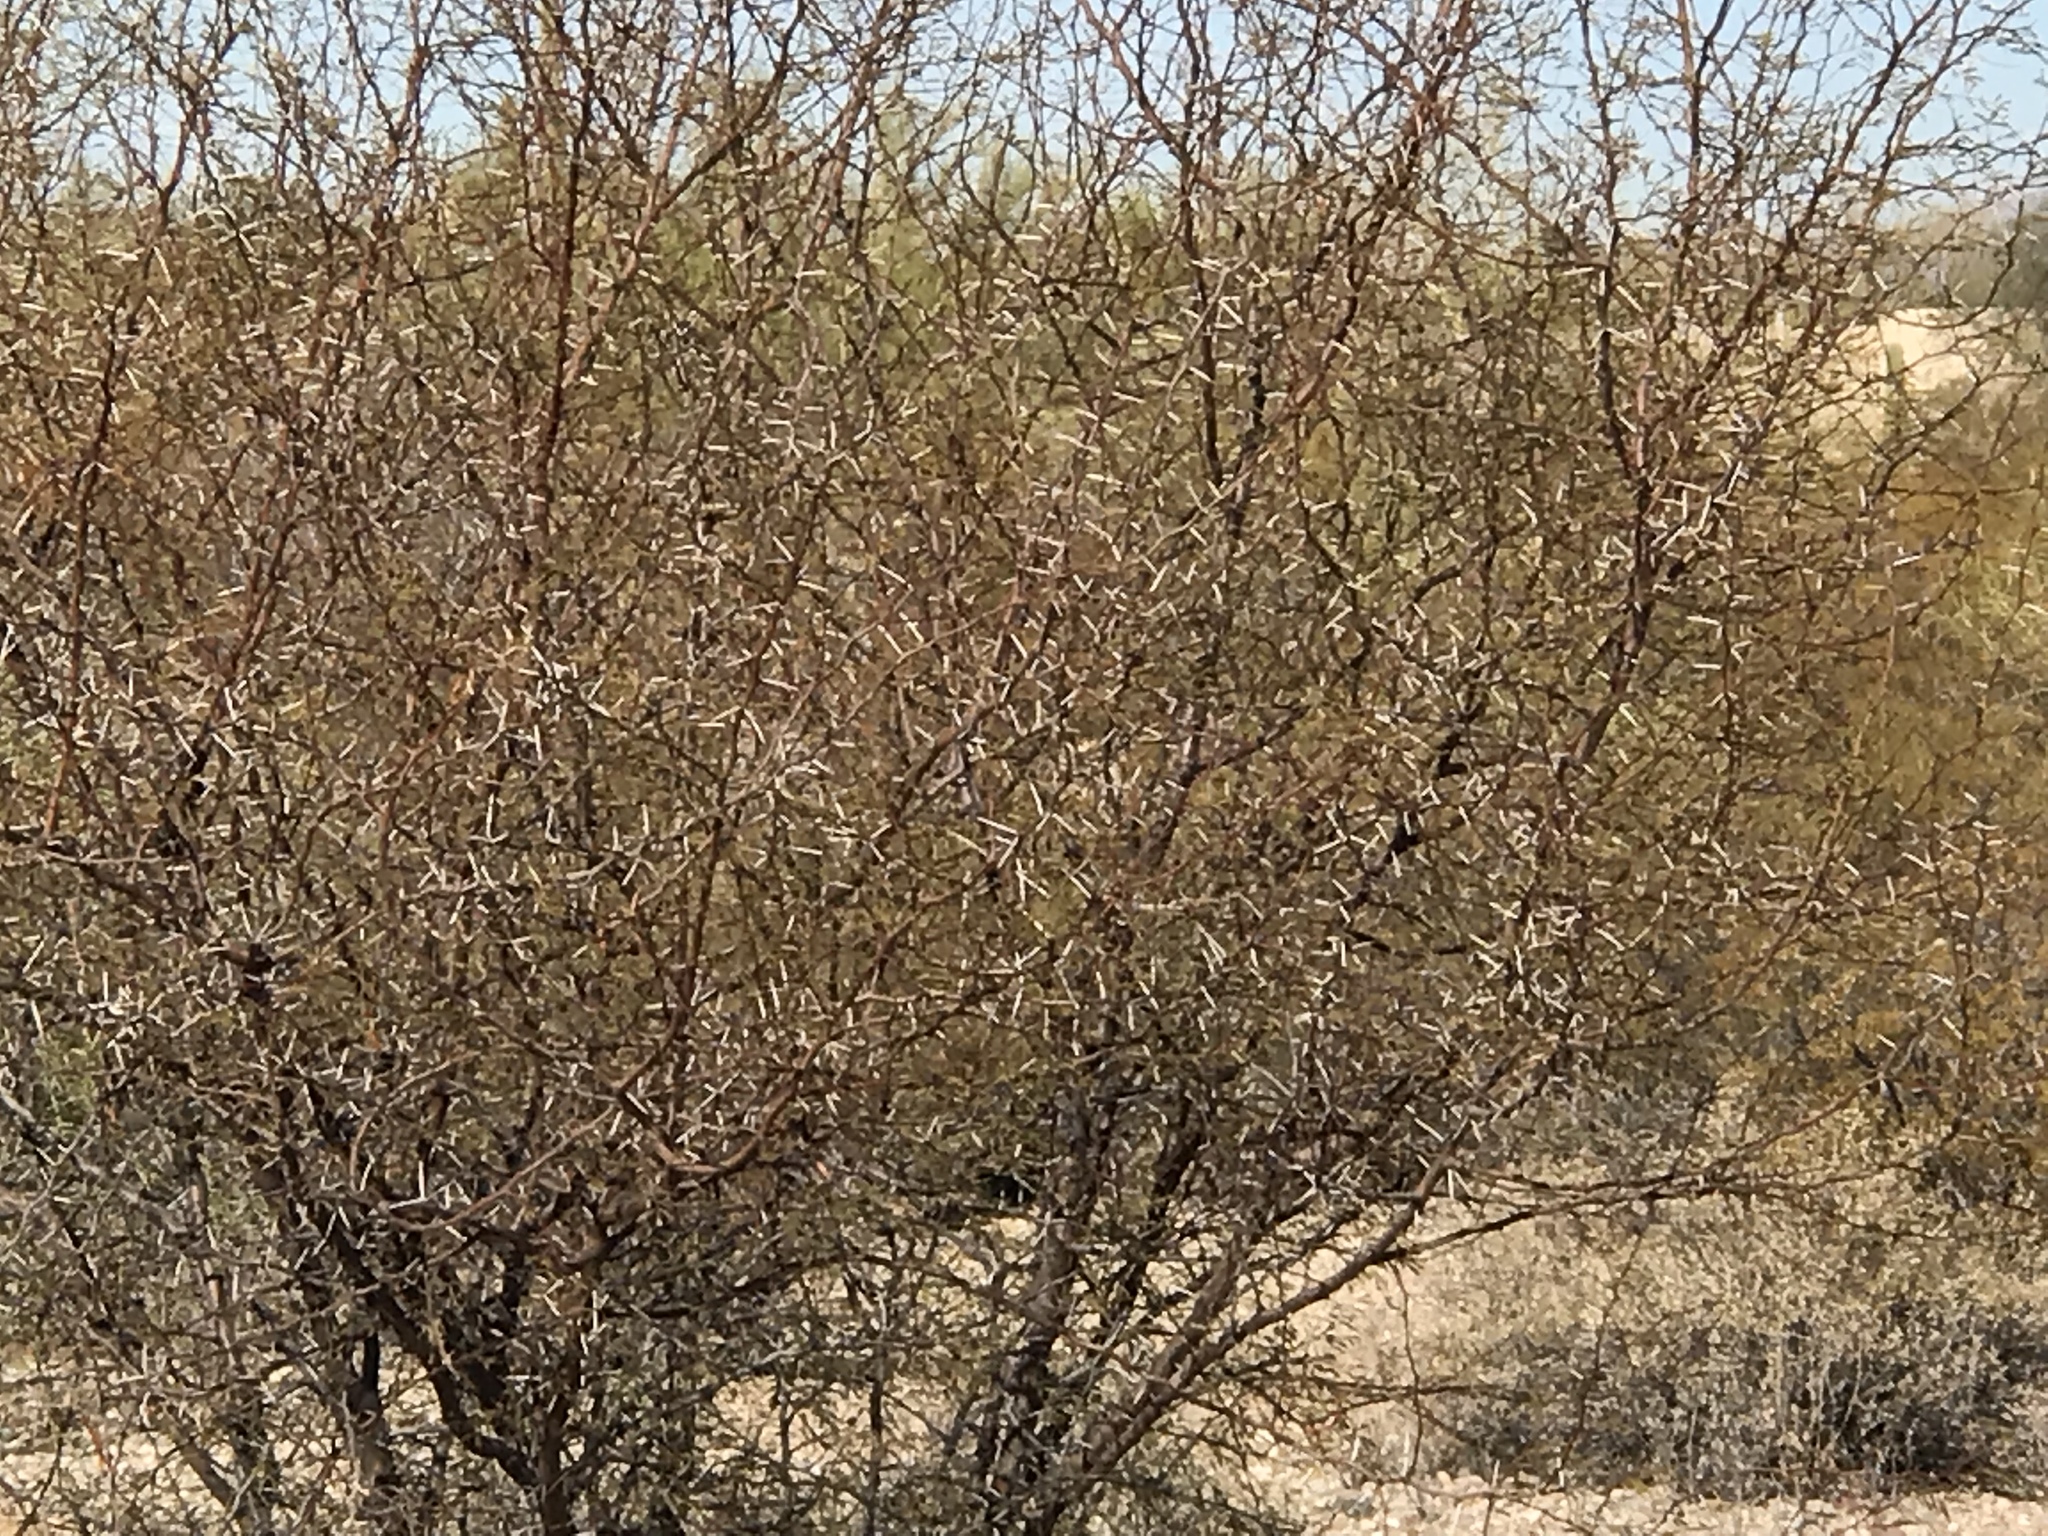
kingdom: Plantae
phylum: Tracheophyta
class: Magnoliopsida
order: Fabales
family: Fabaceae
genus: Vachellia
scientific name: Vachellia constricta
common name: Mescat acacia
